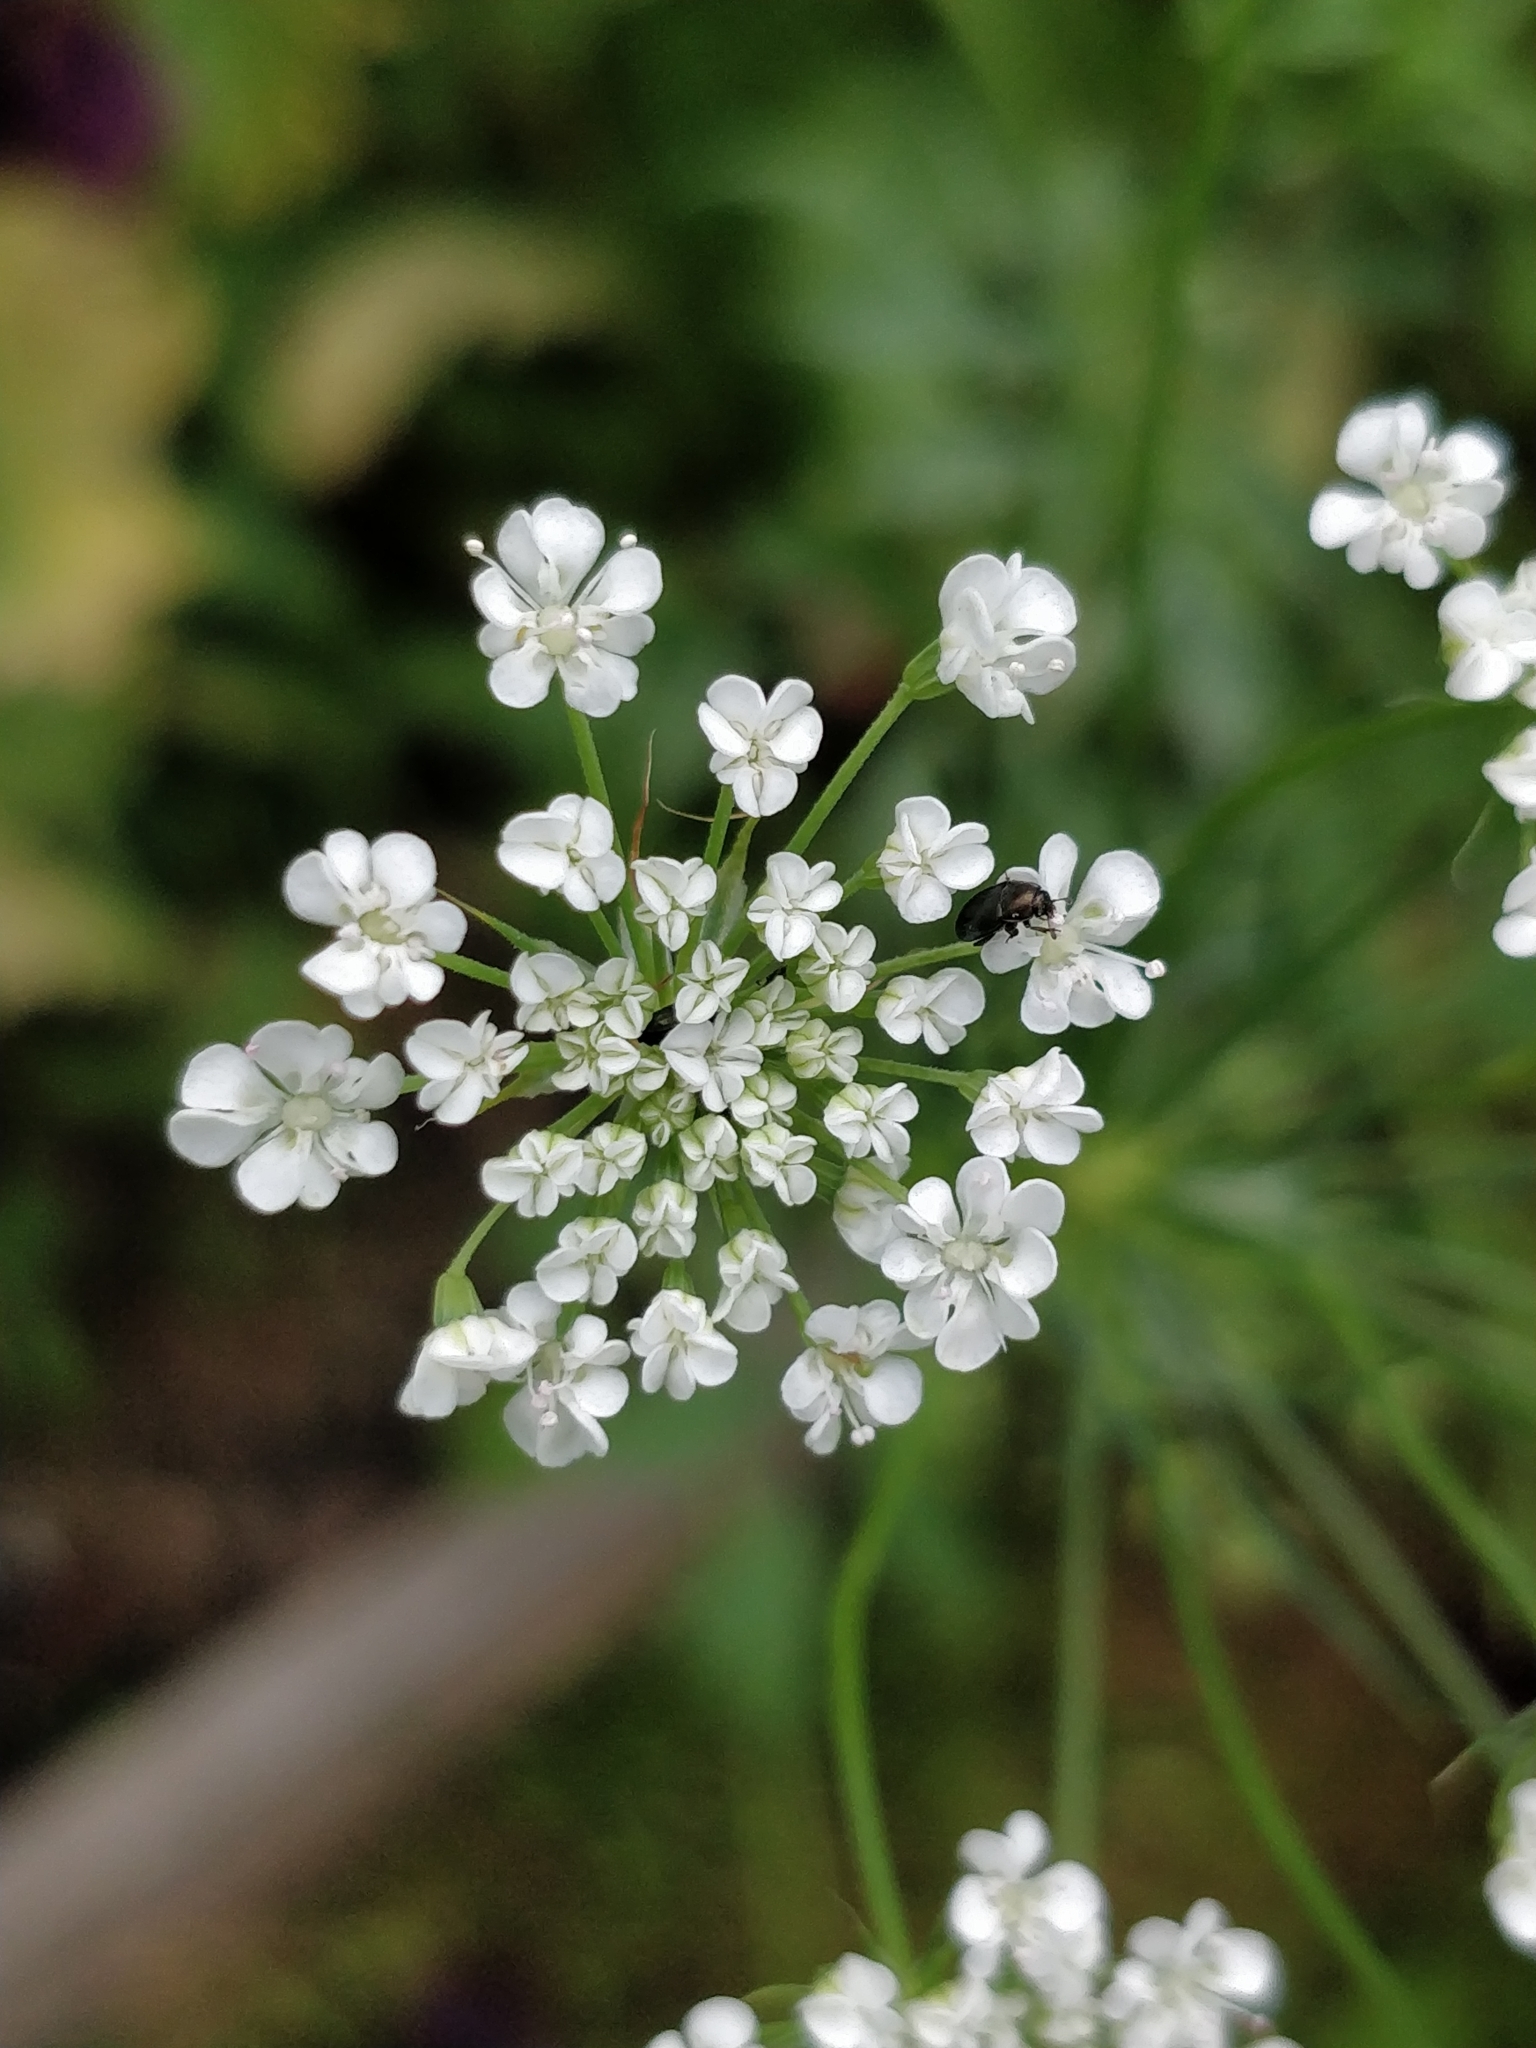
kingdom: Plantae
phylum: Tracheophyta
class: Magnoliopsida
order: Apiales
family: Apiaceae
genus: Torilis
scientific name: Torilis japonica
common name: Upright hedge-parsley
